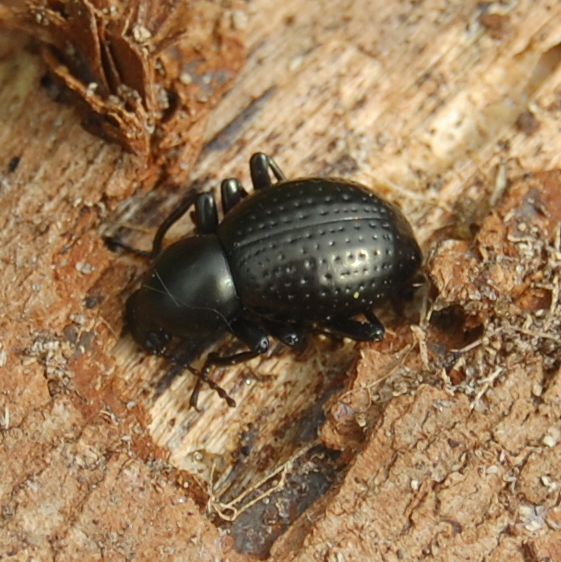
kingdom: Animalia
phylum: Arthropoda
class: Insecta
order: Coleoptera
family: Tenebrionidae
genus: Sphaerotus
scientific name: Sphaerotus
